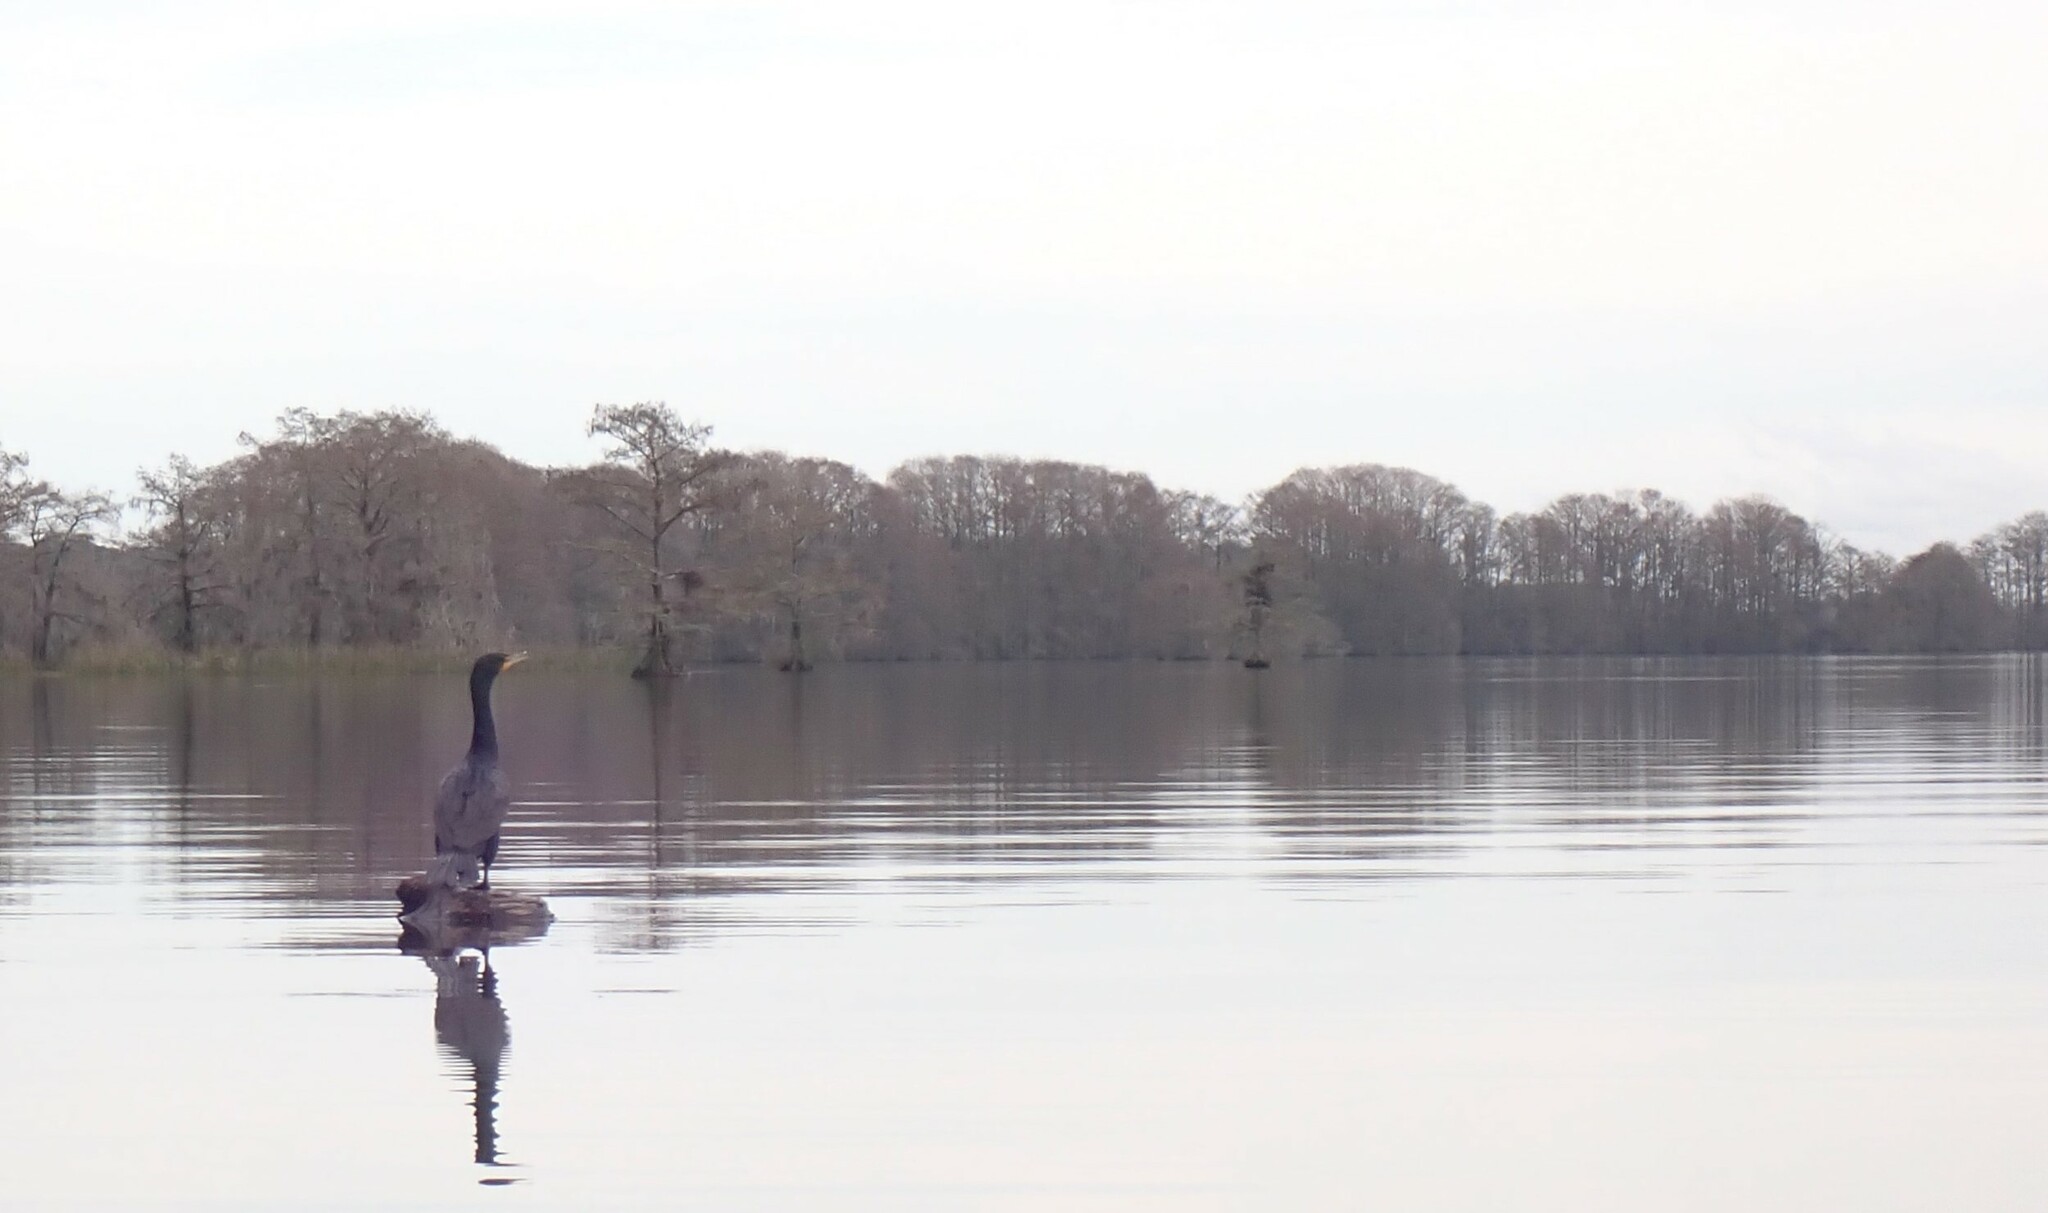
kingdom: Animalia
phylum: Chordata
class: Aves
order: Suliformes
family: Phalacrocoracidae
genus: Phalacrocorax
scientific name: Phalacrocorax auritus
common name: Double-crested cormorant
